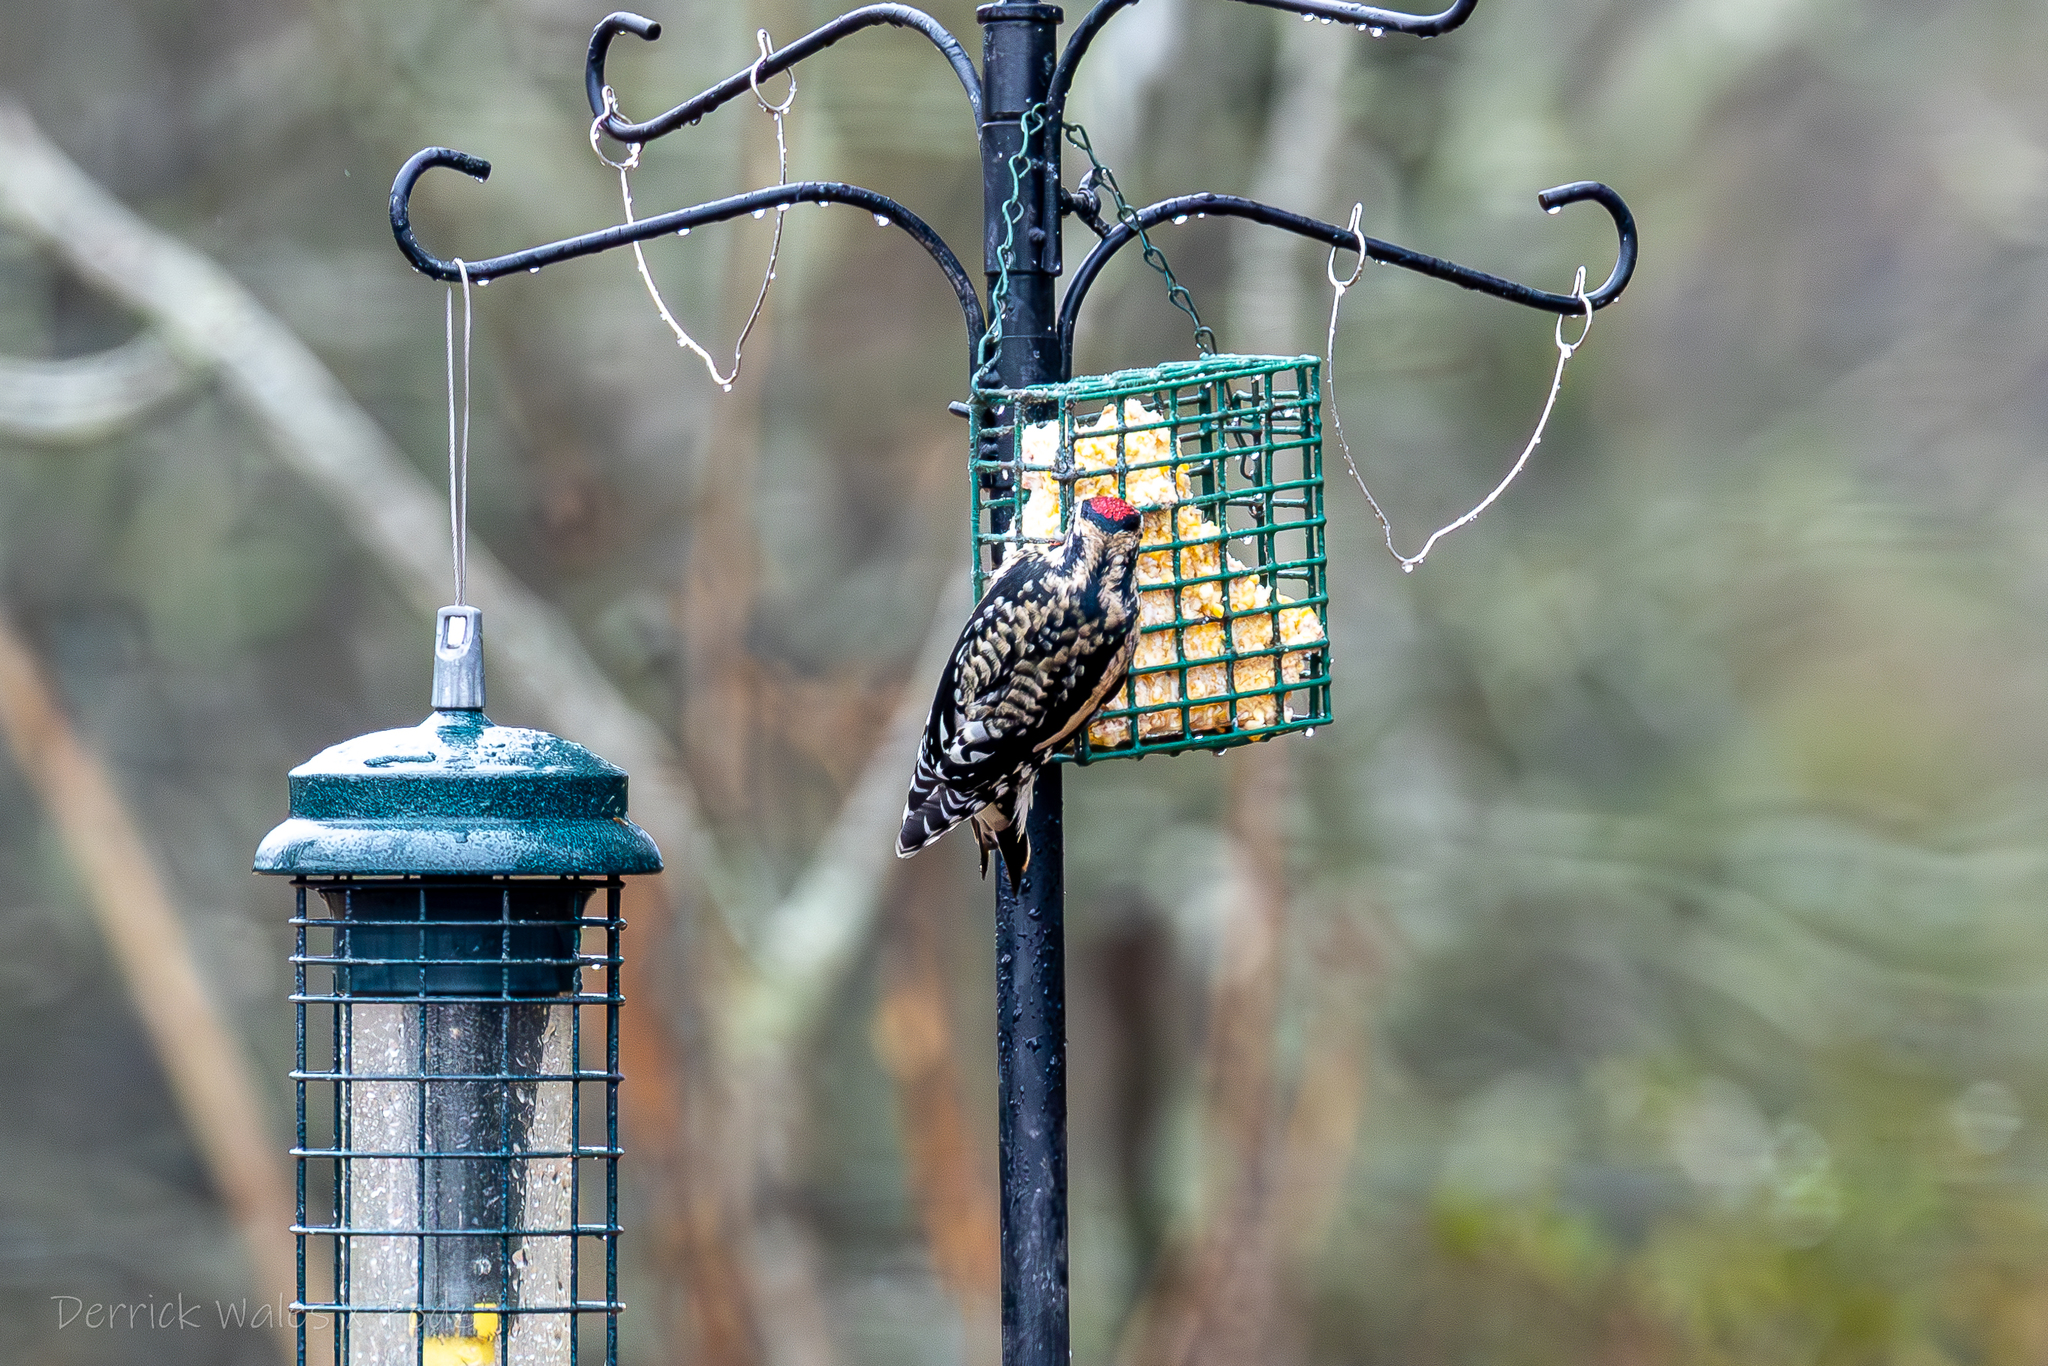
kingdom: Animalia
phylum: Chordata
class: Aves
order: Piciformes
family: Picidae
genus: Sphyrapicus
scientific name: Sphyrapicus varius
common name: Yellow-bellied sapsucker
